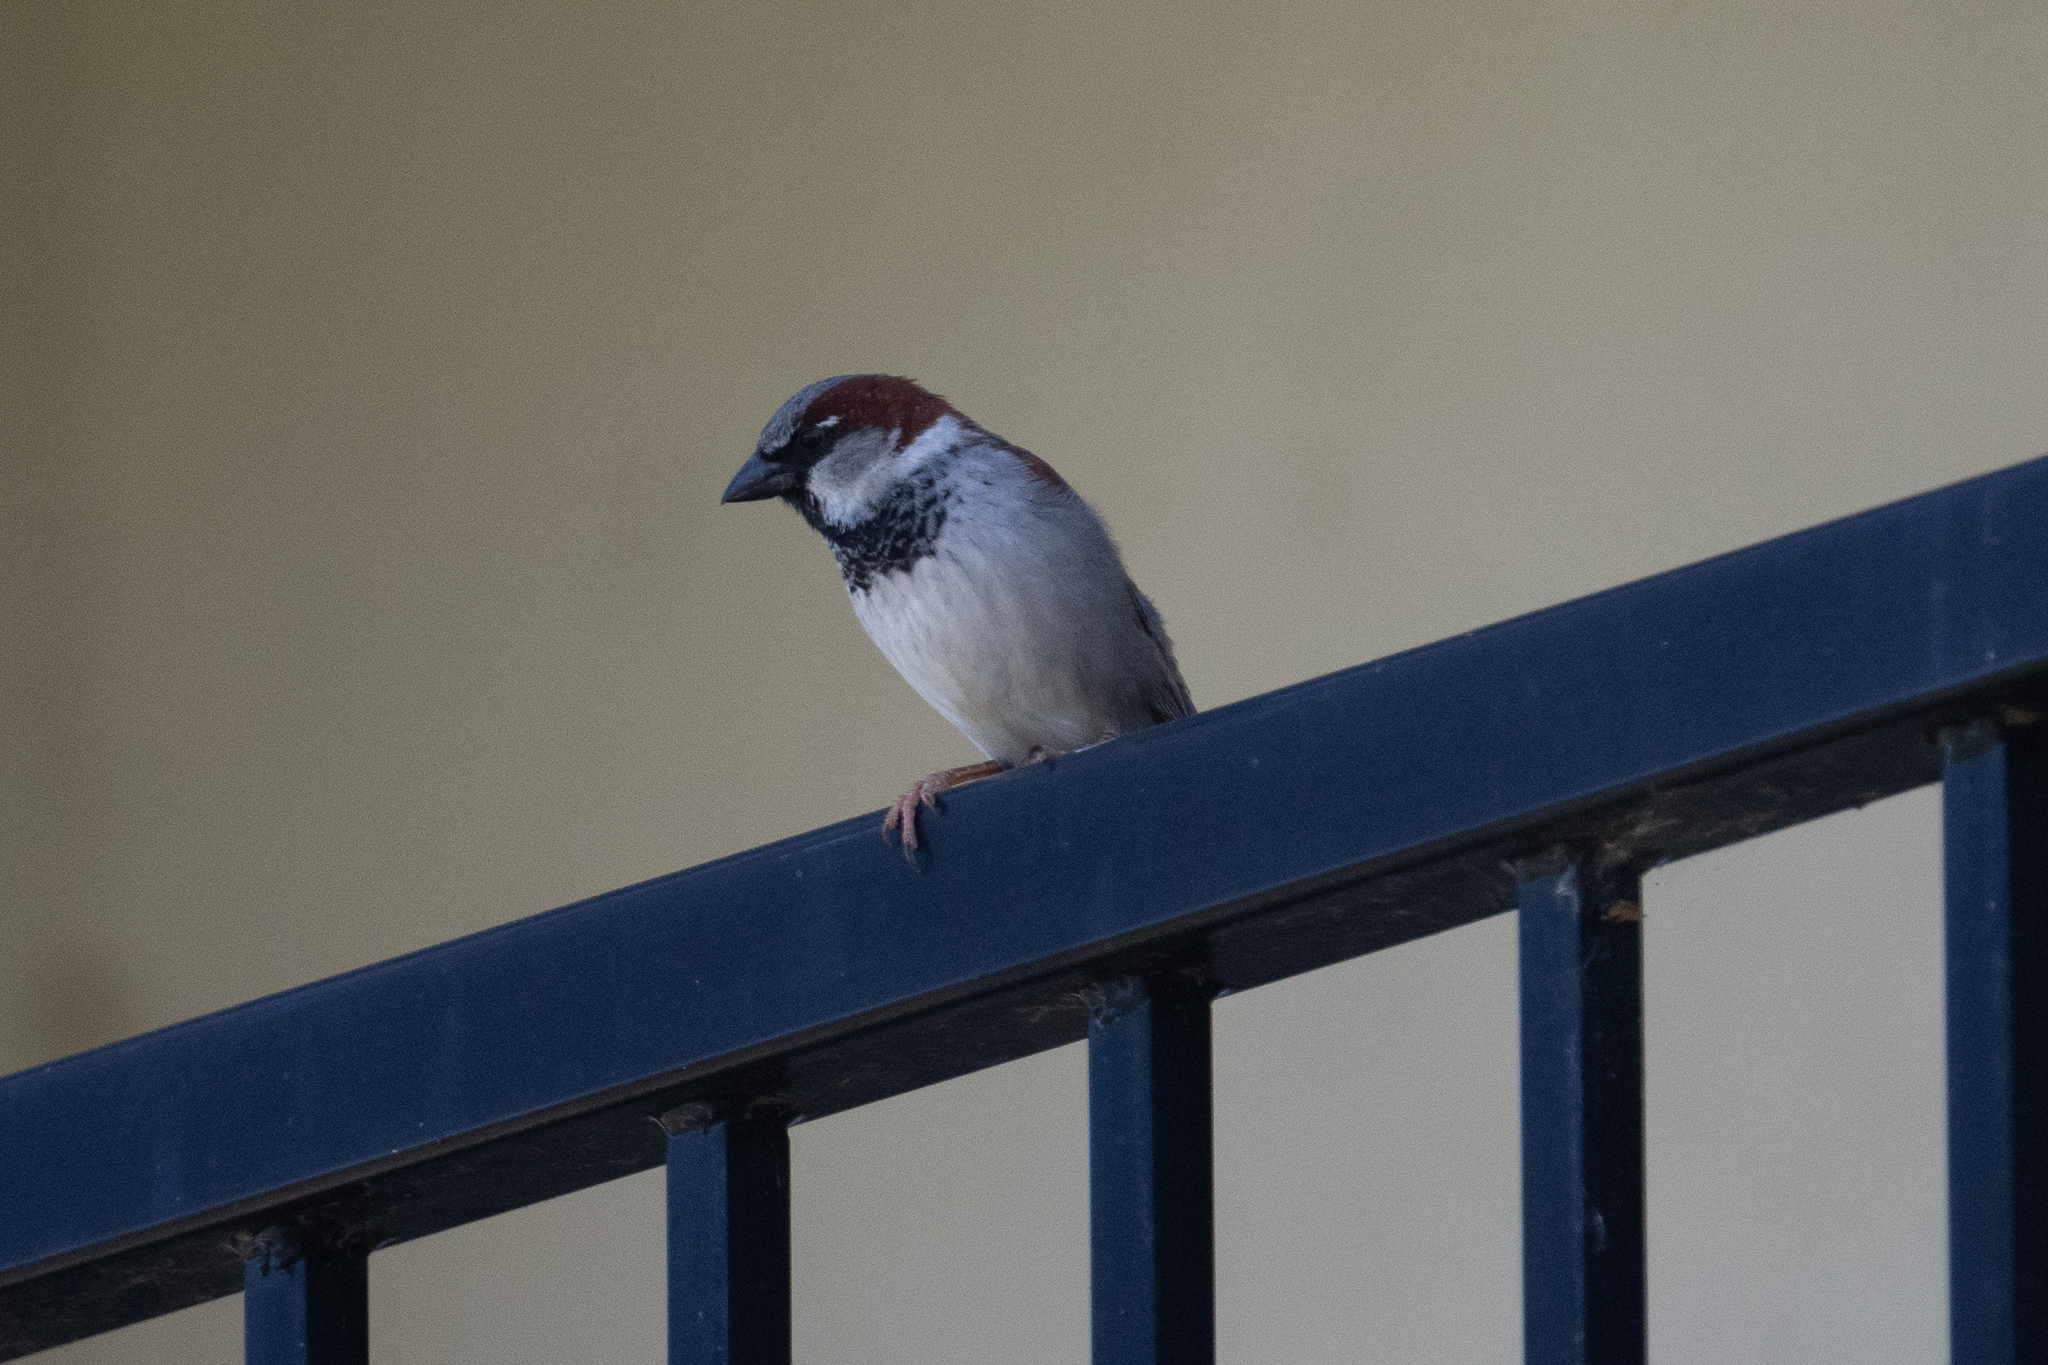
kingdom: Animalia
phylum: Chordata
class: Aves
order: Passeriformes
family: Passeridae
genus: Passer
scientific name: Passer domesticus
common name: House sparrow
